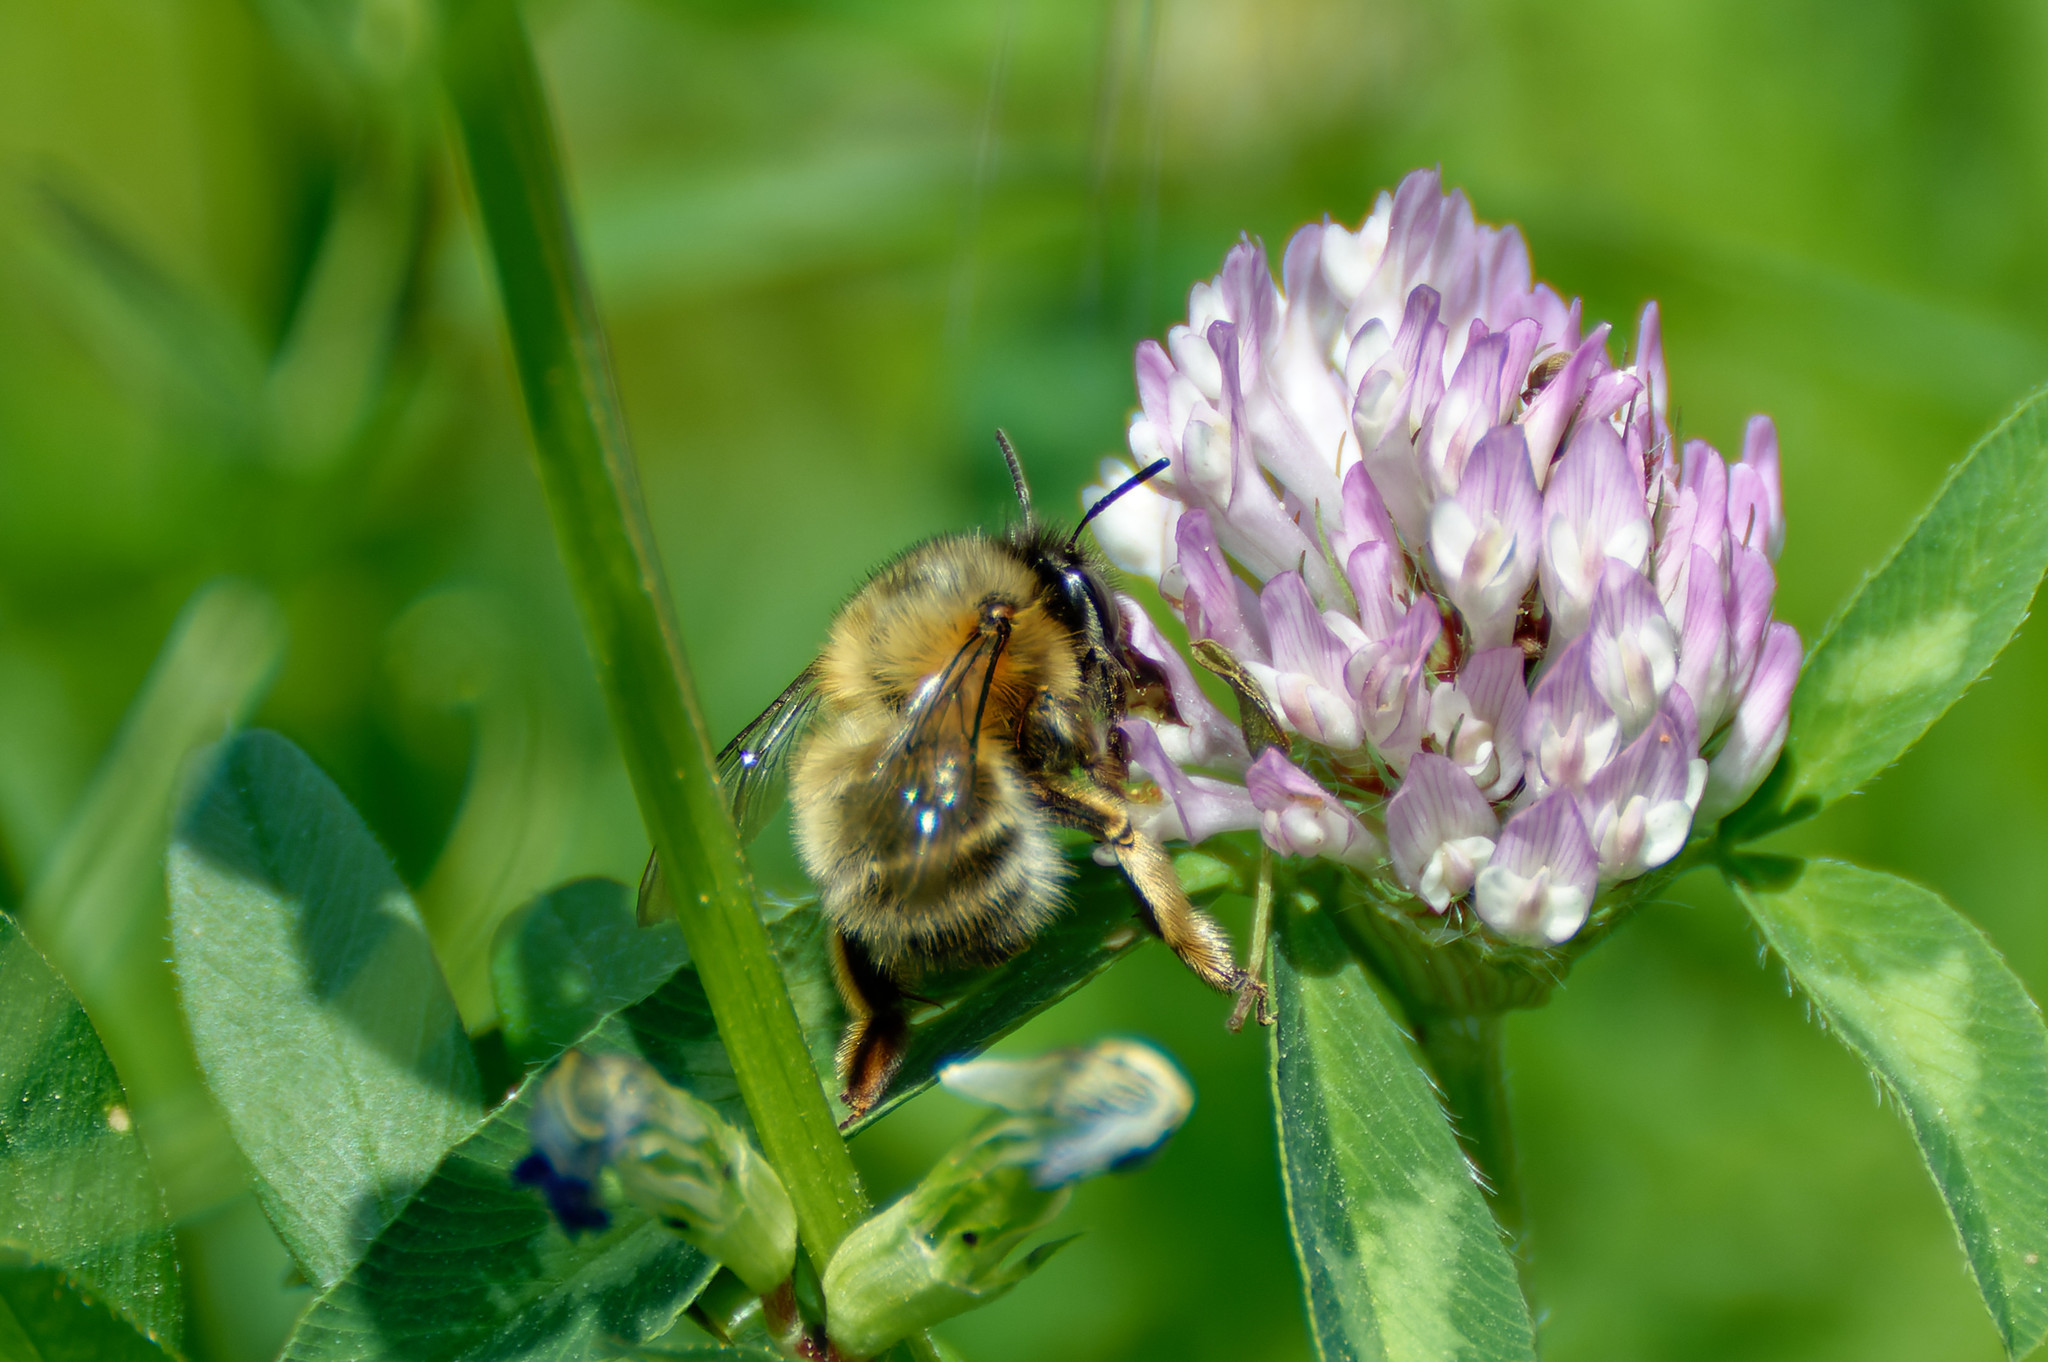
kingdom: Animalia
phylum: Arthropoda
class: Insecta
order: Hymenoptera
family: Apidae
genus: Anthophora
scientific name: Anthophora plumipes
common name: Hairy-footed flower bee
